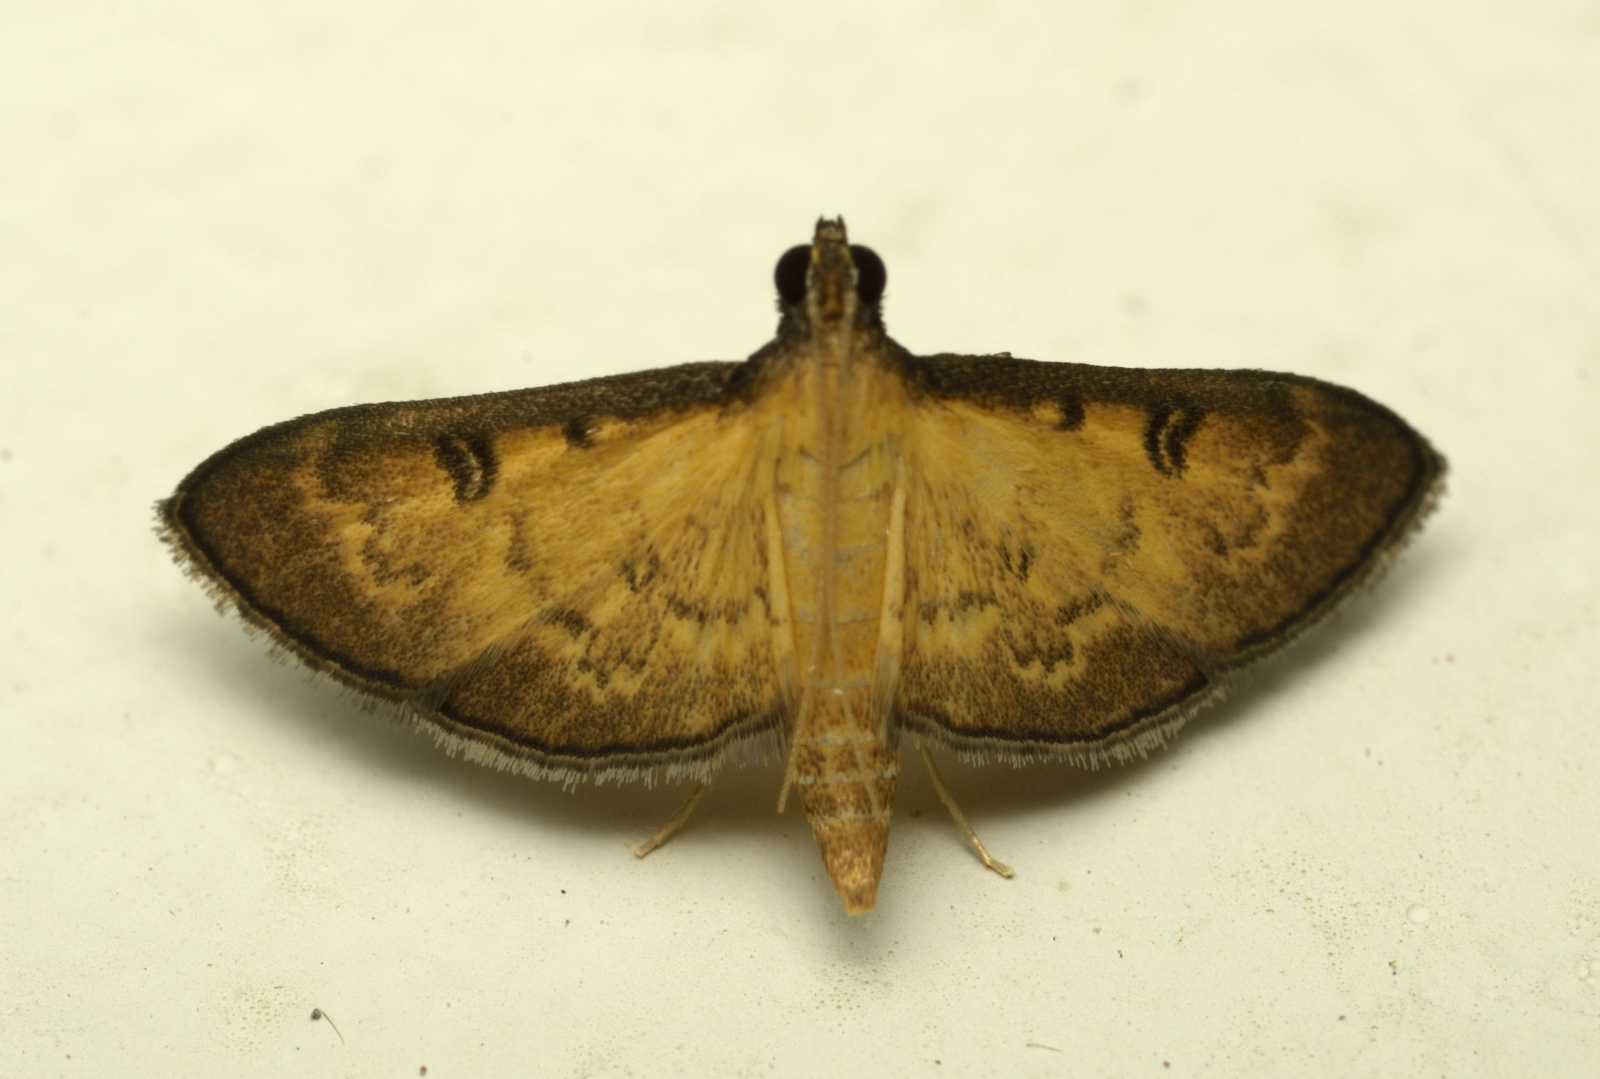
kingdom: Animalia
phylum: Arthropoda
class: Insecta
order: Lepidoptera
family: Crambidae
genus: Tatobotys
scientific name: Tatobotys biannulalis
